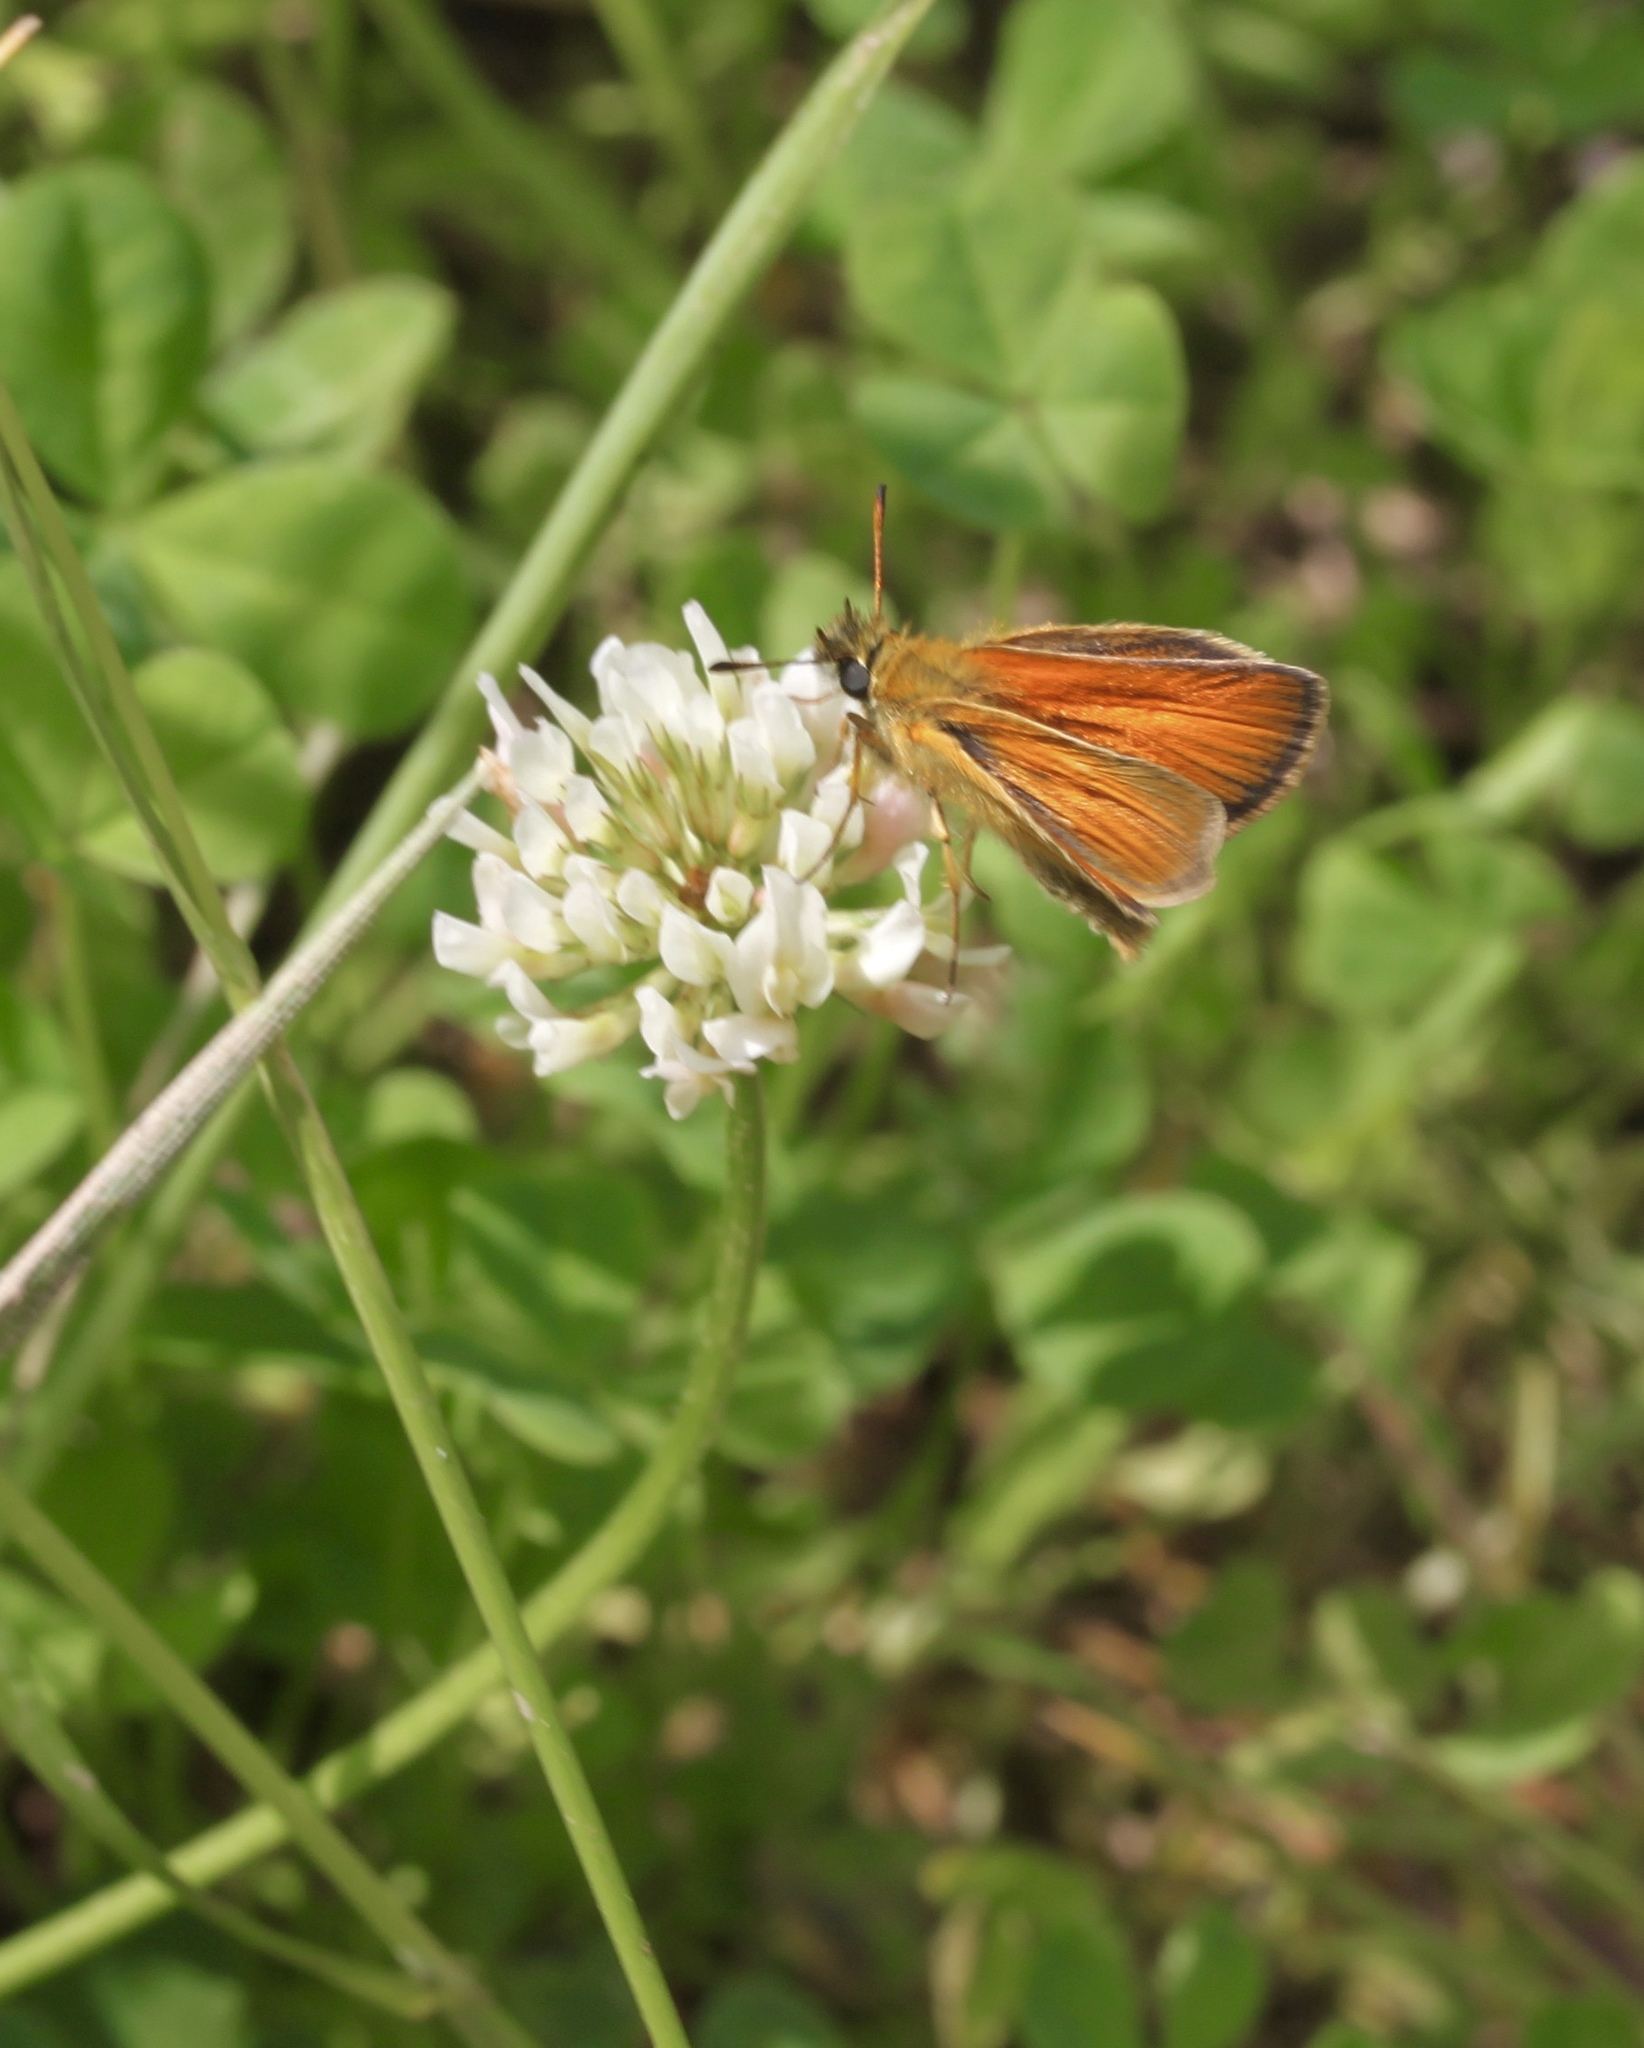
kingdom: Animalia
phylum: Arthropoda
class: Insecta
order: Lepidoptera
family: Hesperiidae
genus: Thymelicus
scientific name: Thymelicus lineola
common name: Essex skipper
